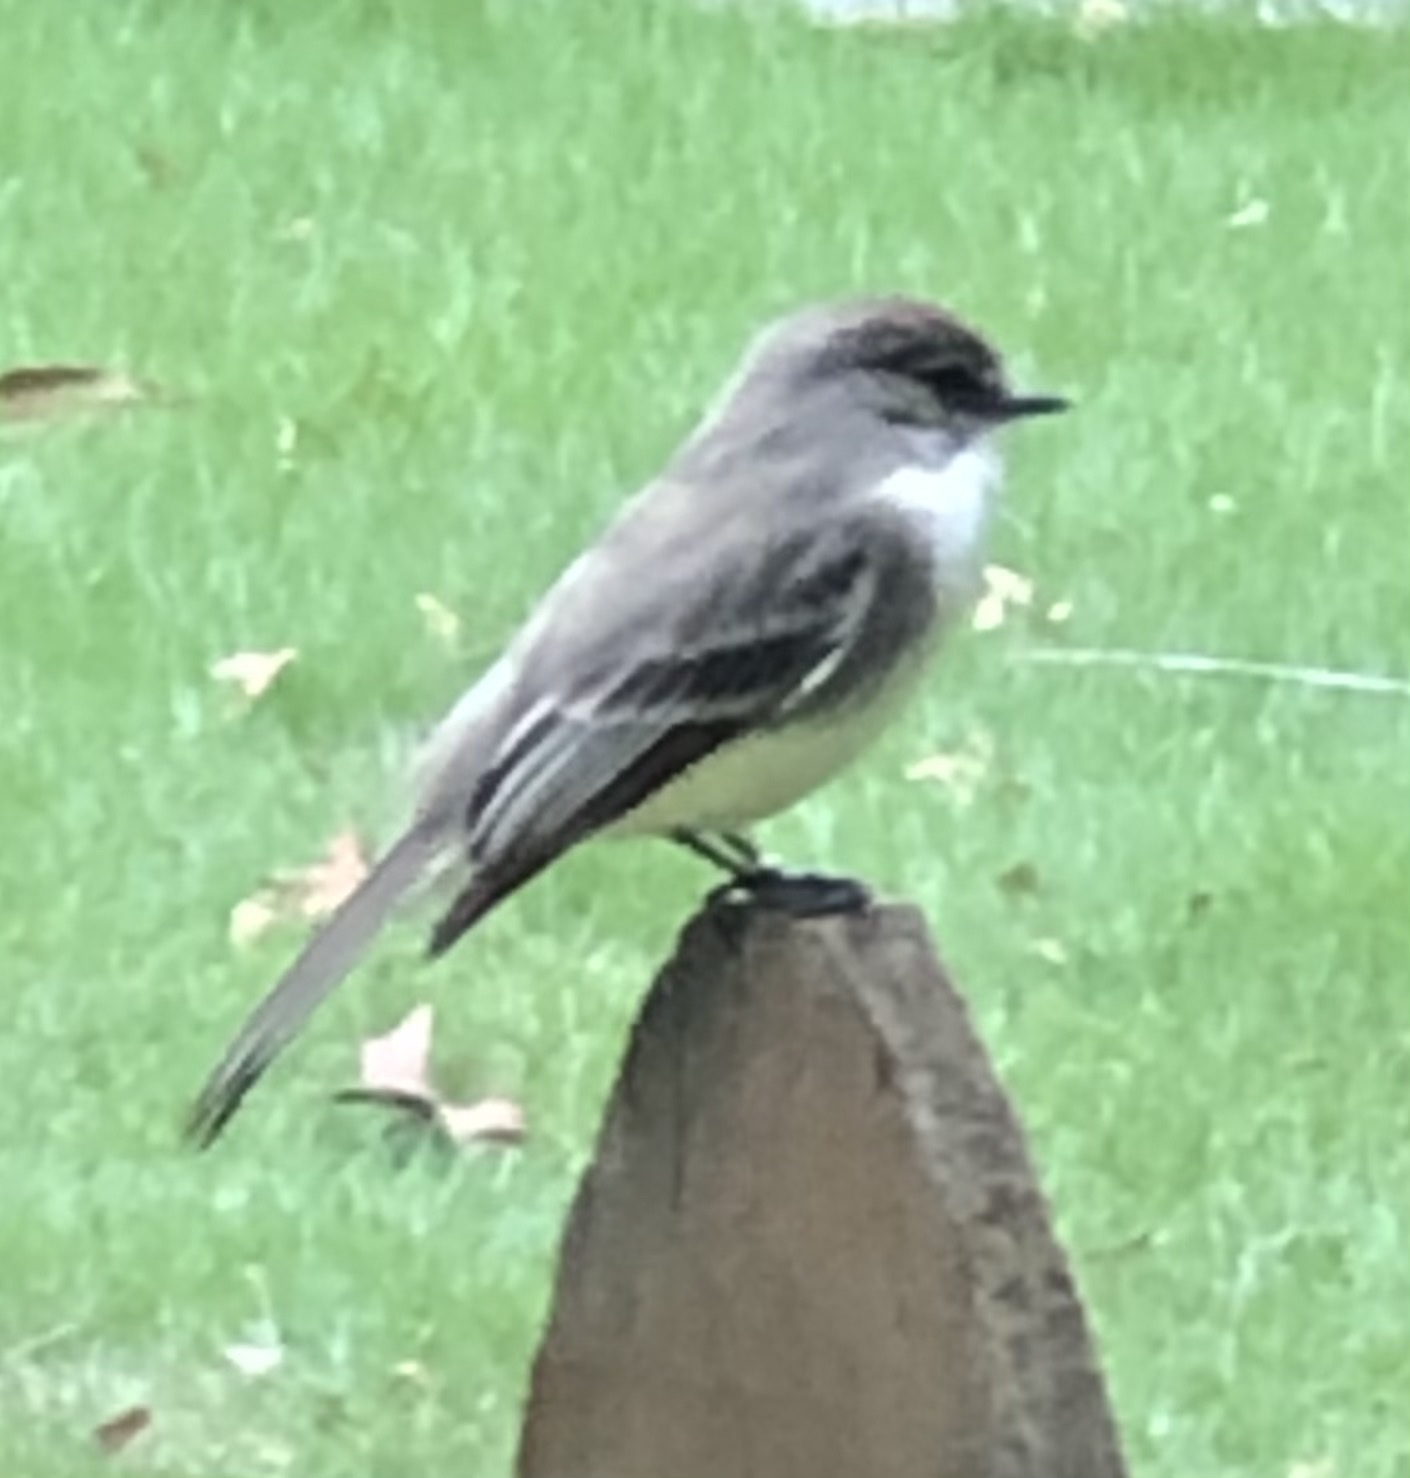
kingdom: Animalia
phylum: Chordata
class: Aves
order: Passeriformes
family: Tyrannidae
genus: Sayornis
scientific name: Sayornis phoebe
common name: Eastern phoebe
